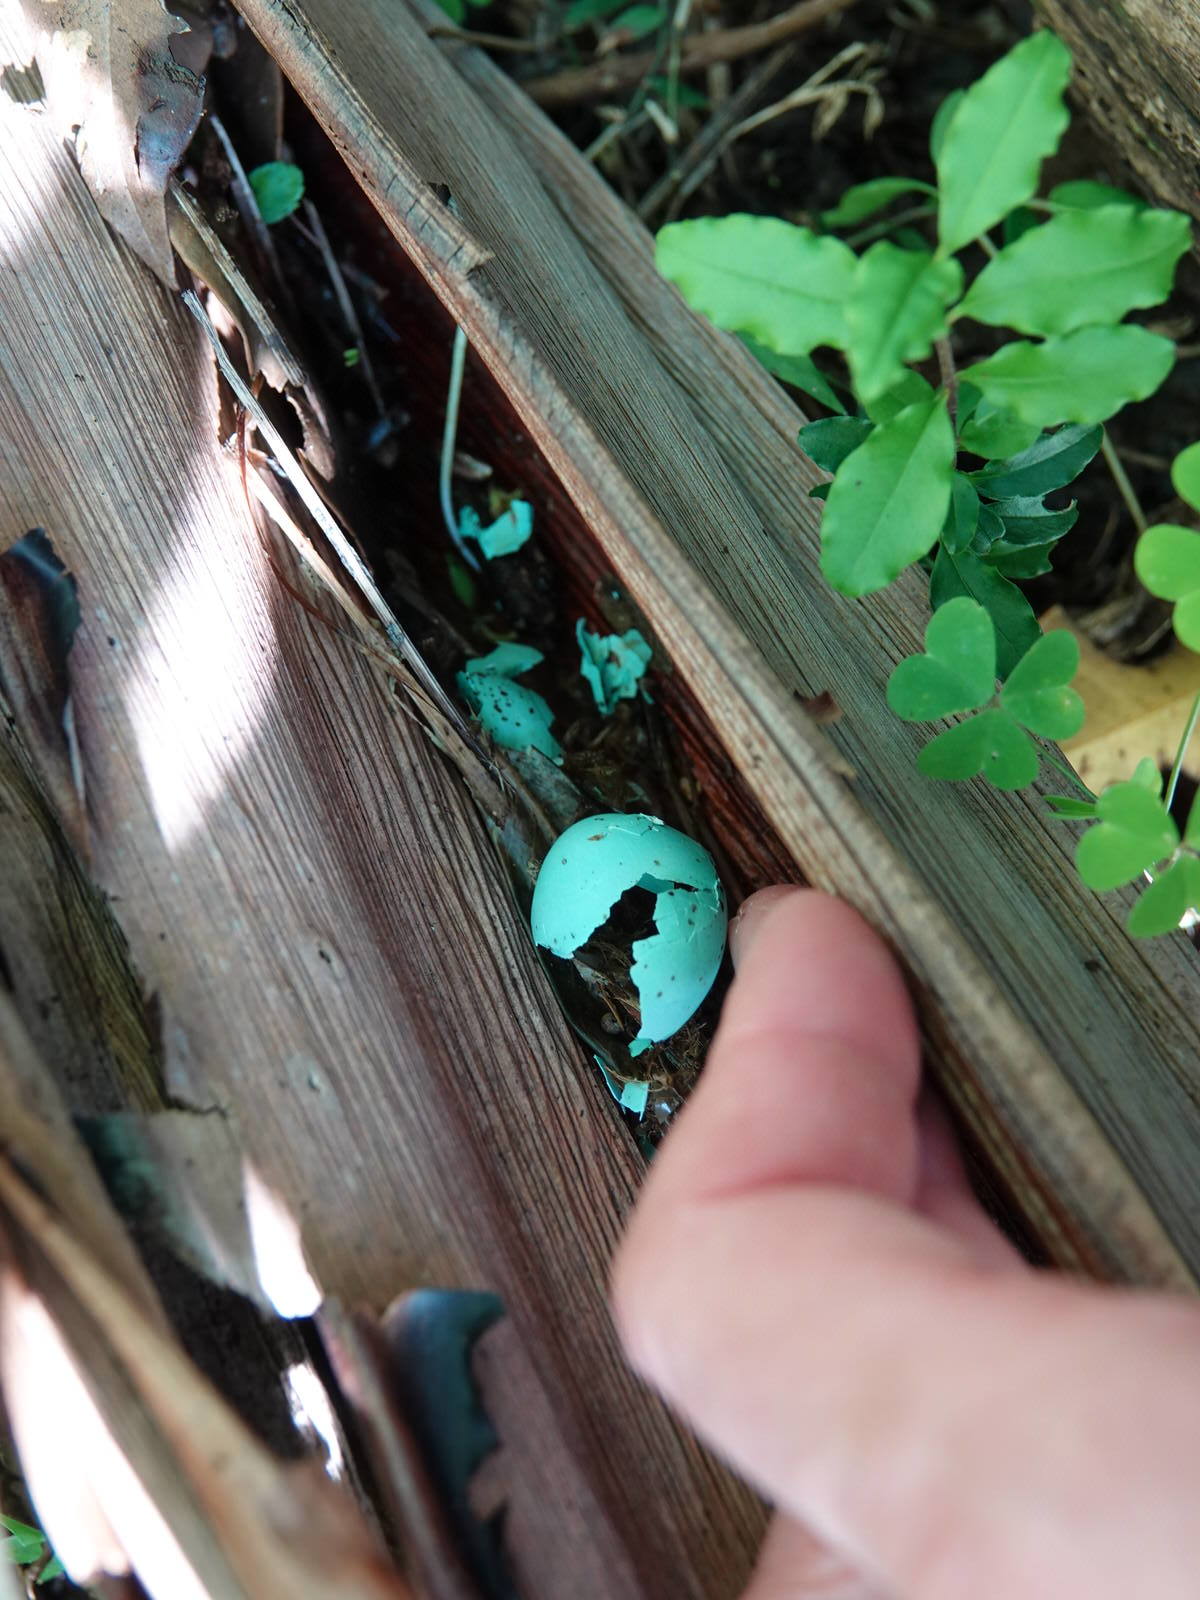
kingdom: Animalia
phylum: Chordata
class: Aves
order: Passeriformes
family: Turdidae
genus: Turdus
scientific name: Turdus philomelos
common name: Song thrush
